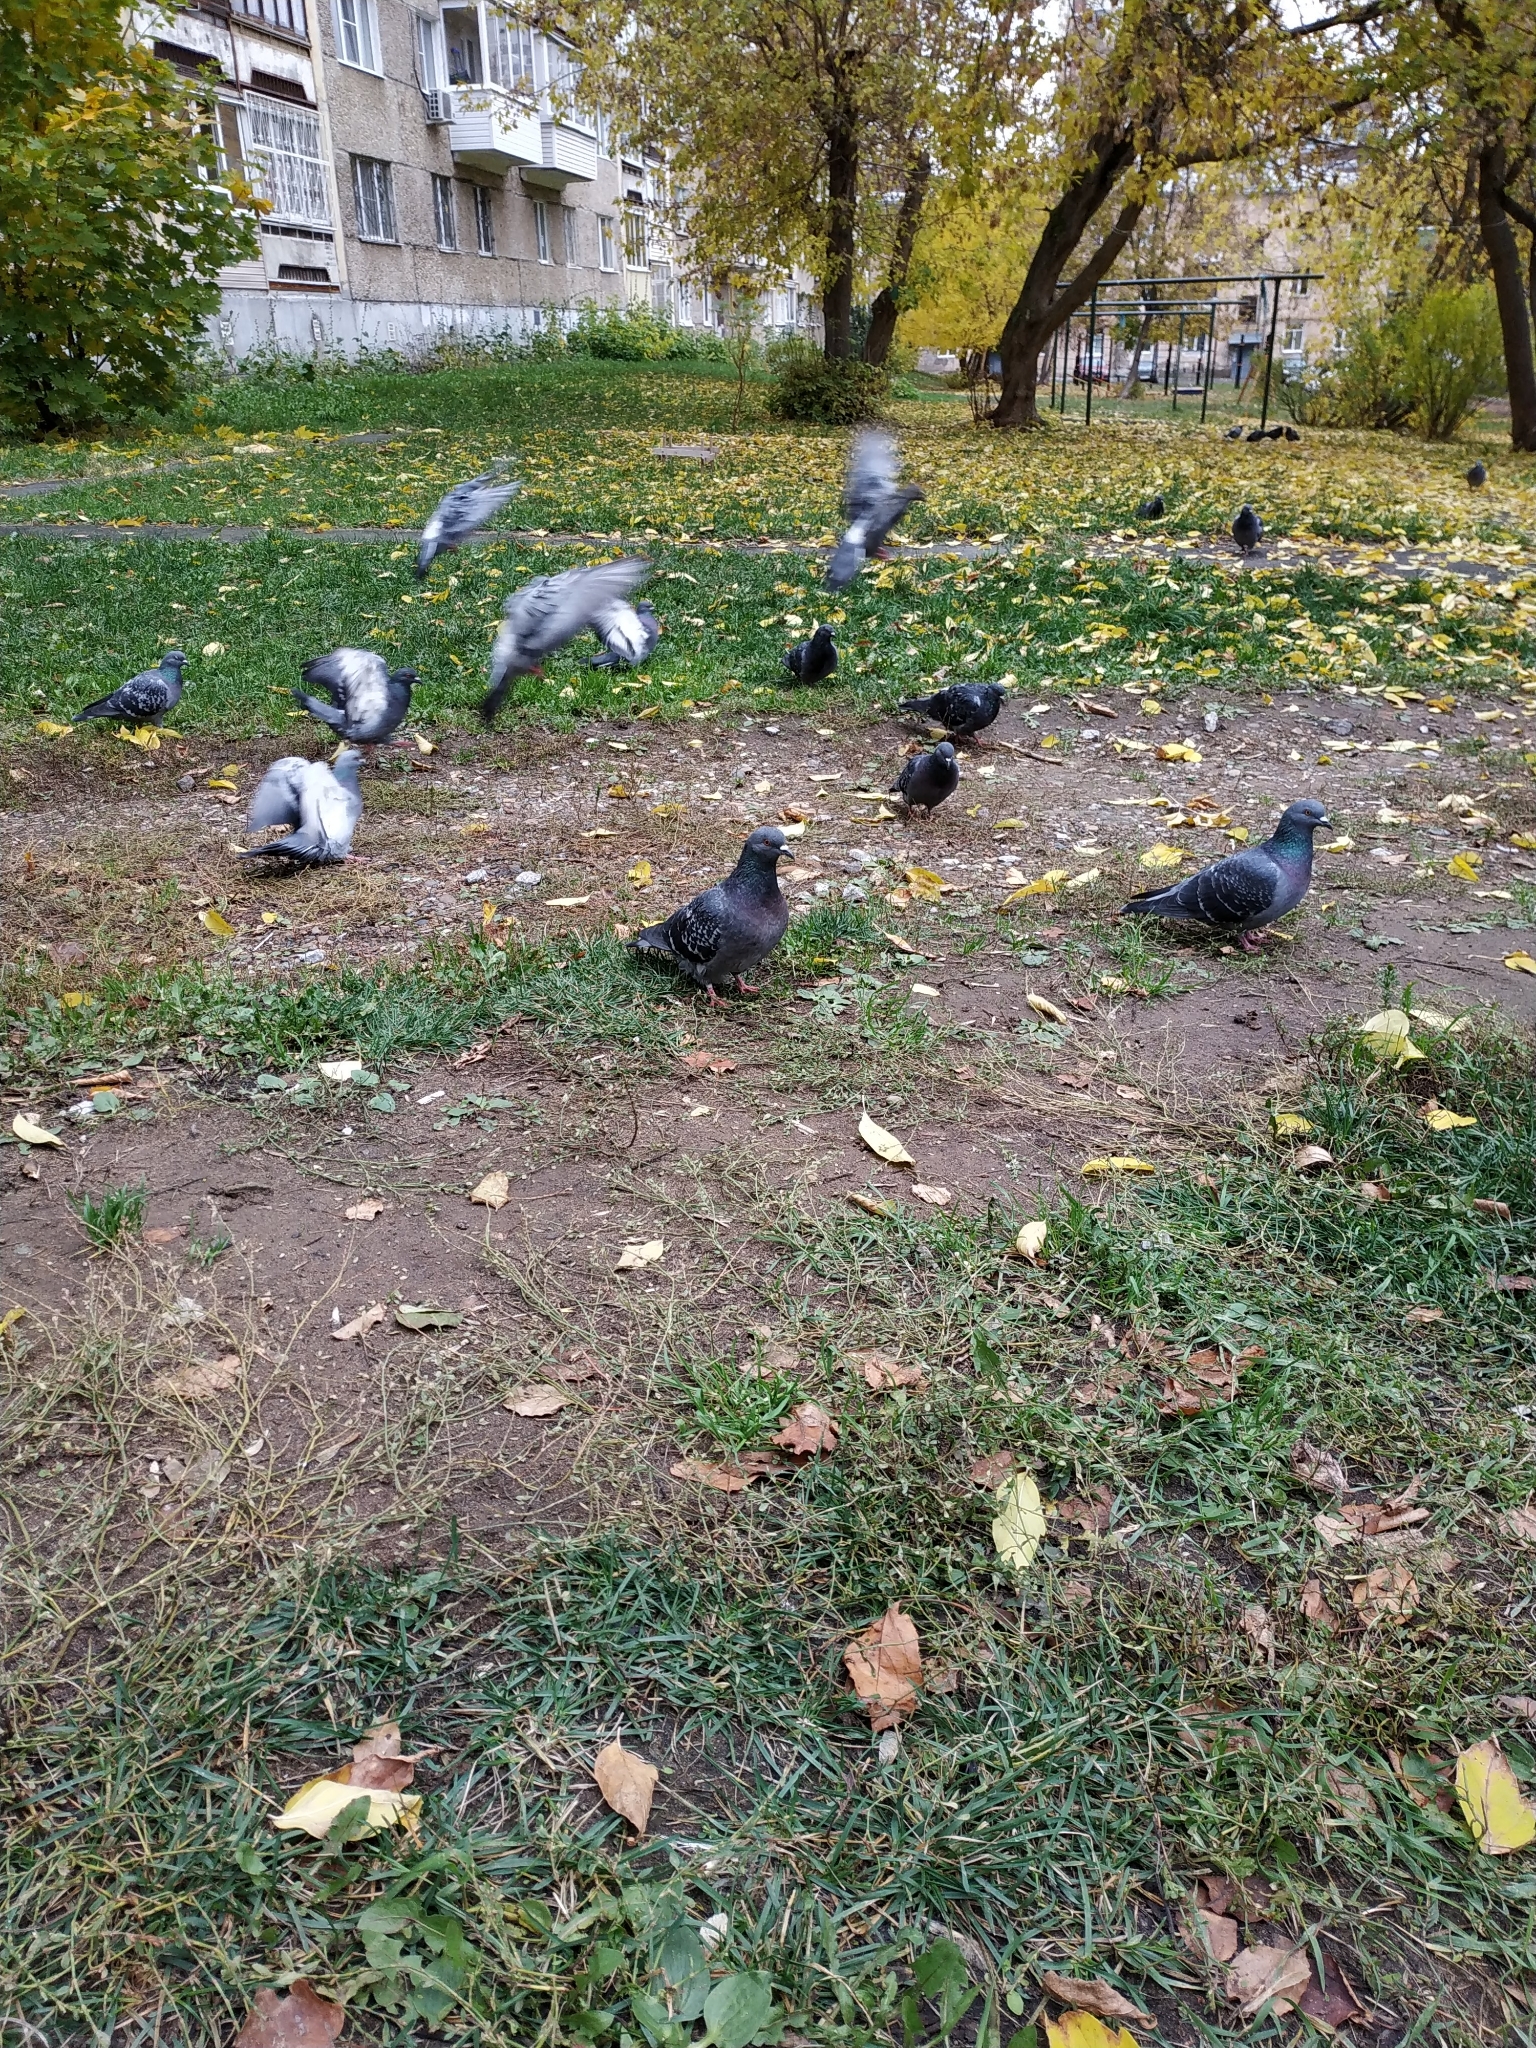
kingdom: Animalia
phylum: Chordata
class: Aves
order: Columbiformes
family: Columbidae
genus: Columba
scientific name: Columba livia
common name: Rock pigeon
